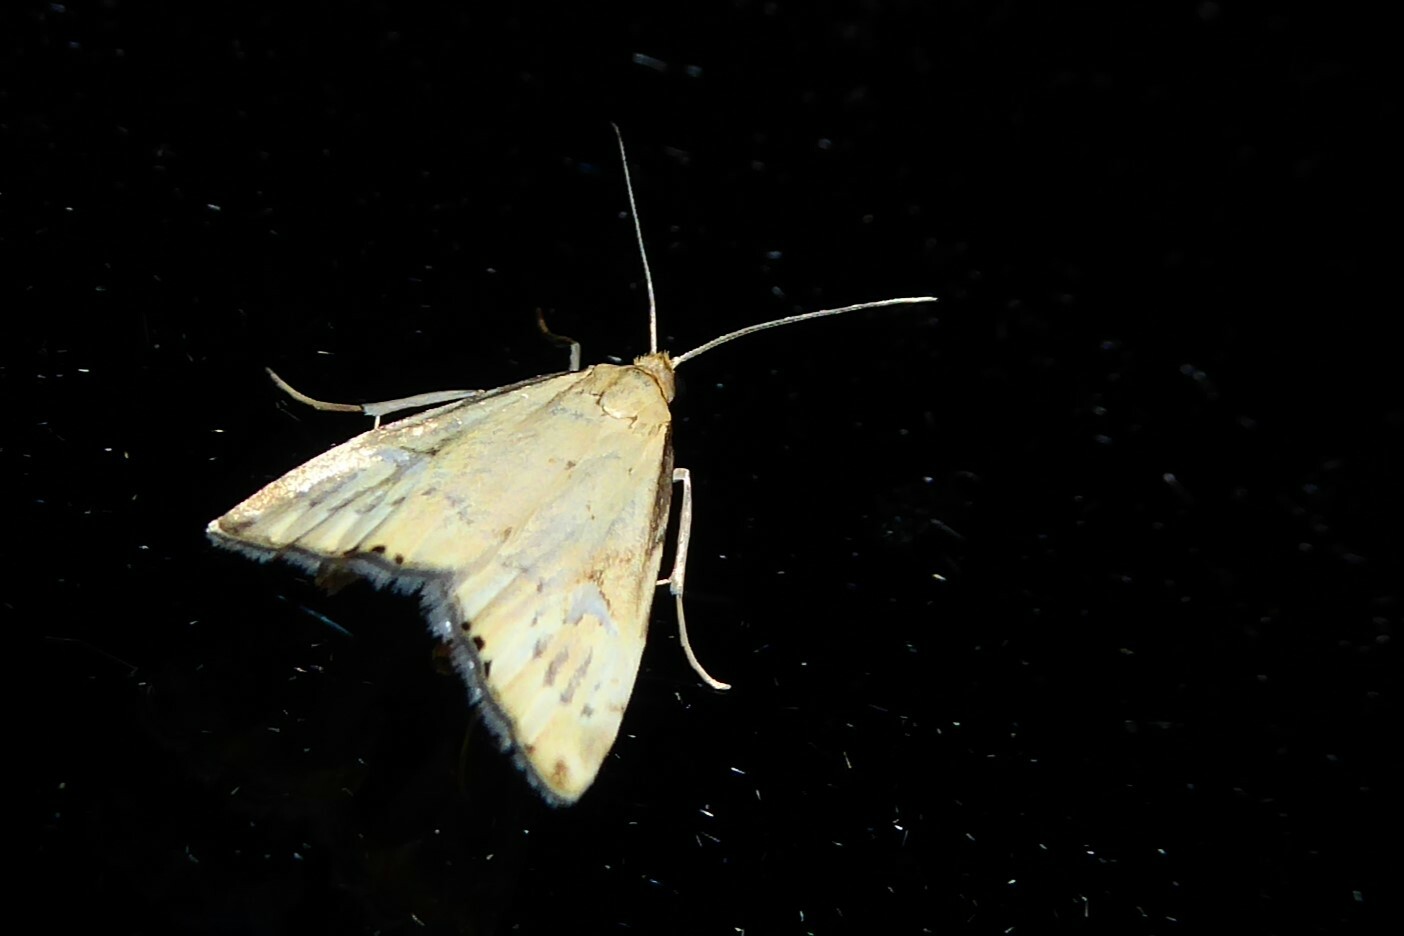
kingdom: Animalia
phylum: Arthropoda
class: Insecta
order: Lepidoptera
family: Crambidae
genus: Glaucocharis
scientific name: Glaucocharis lepidella
